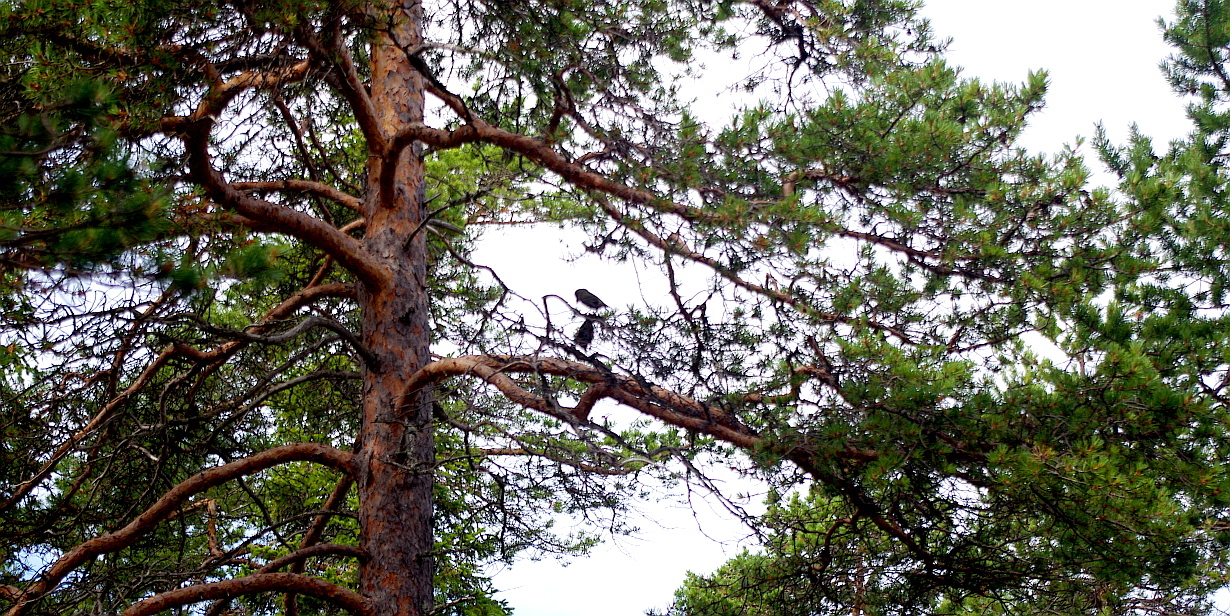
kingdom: Animalia
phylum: Chordata
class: Aves
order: Passeriformes
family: Fringillidae
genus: Loxia
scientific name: Loxia pytyopsittacus
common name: Parrot crossbill
